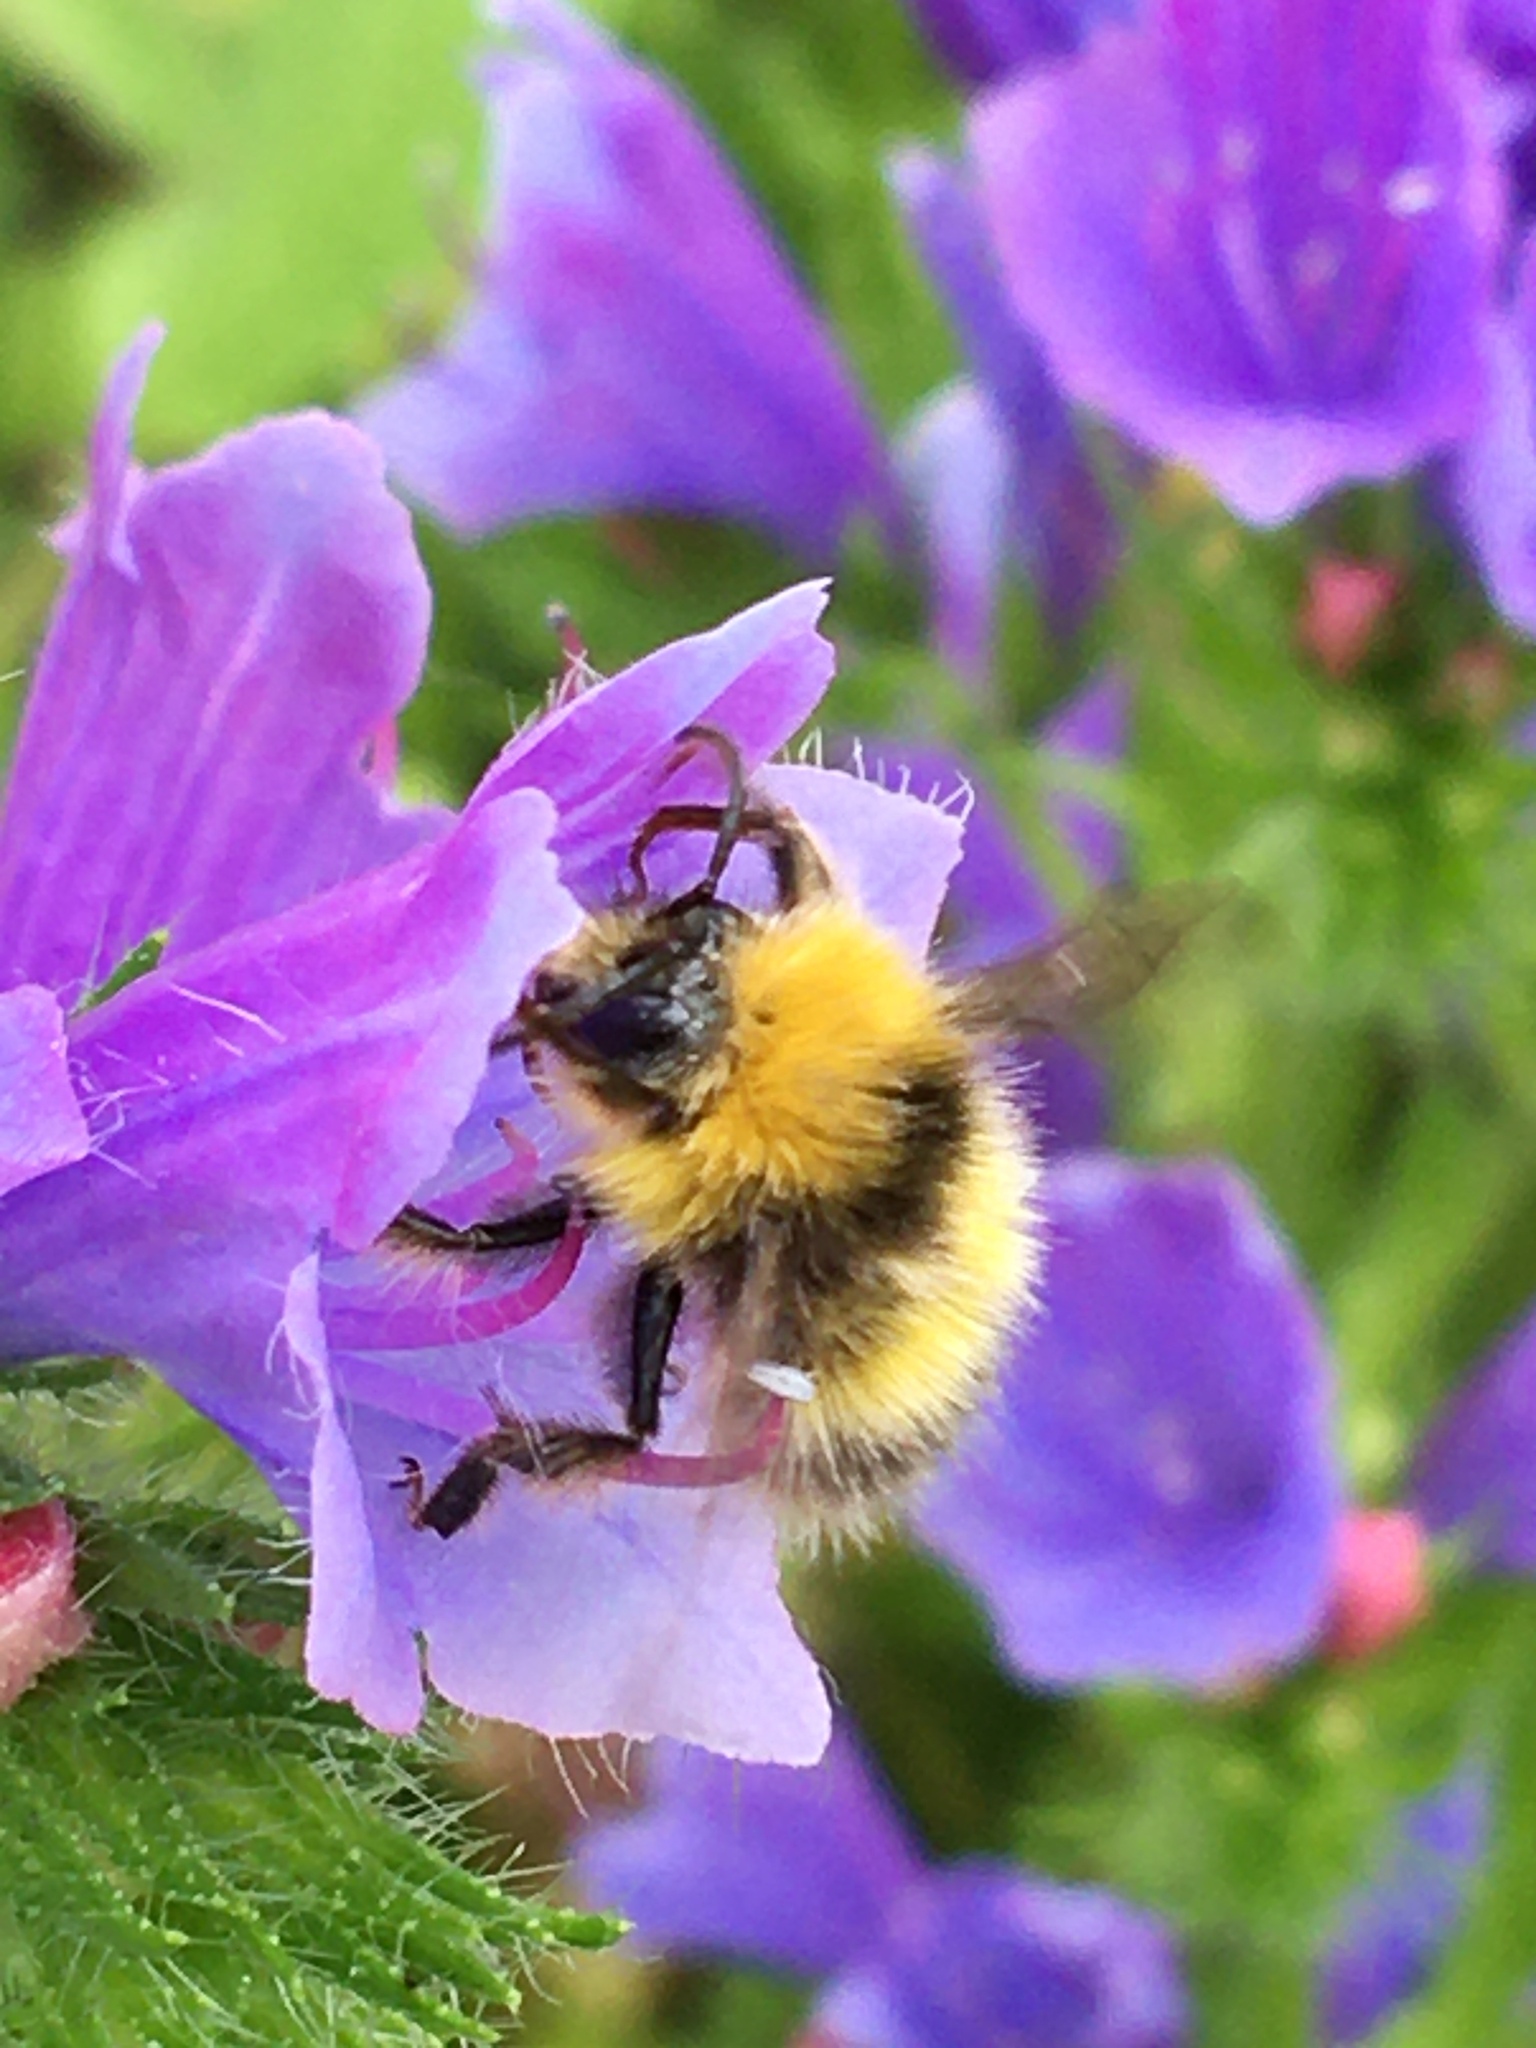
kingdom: Animalia
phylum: Arthropoda
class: Insecta
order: Hymenoptera
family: Apidae
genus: Bombus
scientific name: Bombus pratorum
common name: Early humble-bee
